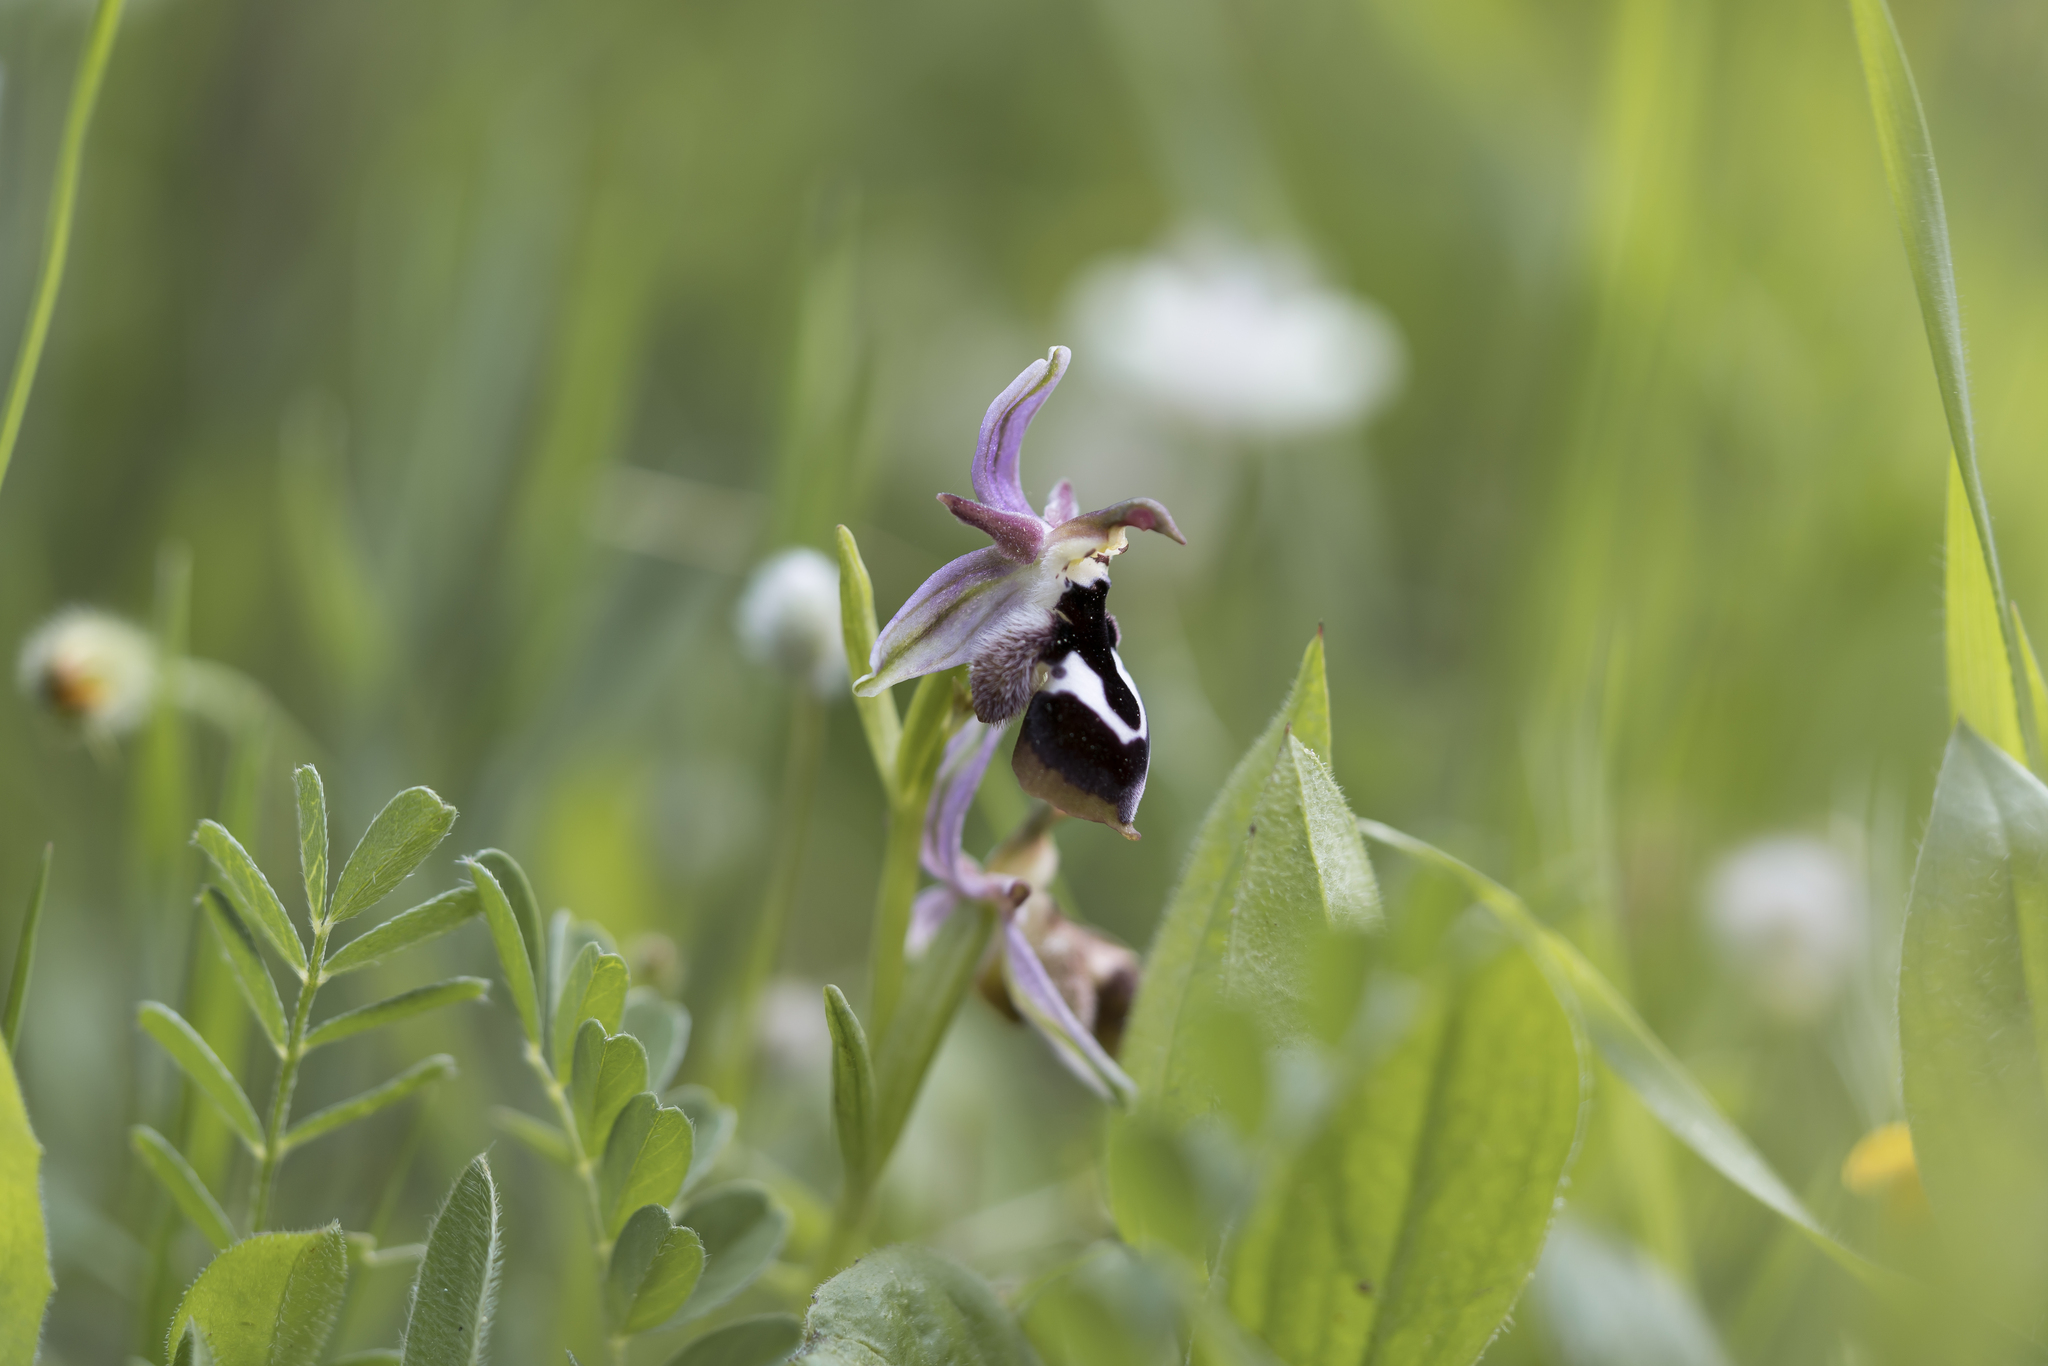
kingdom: Plantae
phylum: Tracheophyta
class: Liliopsida
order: Asparagales
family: Orchidaceae
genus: Ophrys
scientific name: Ophrys reinholdii
